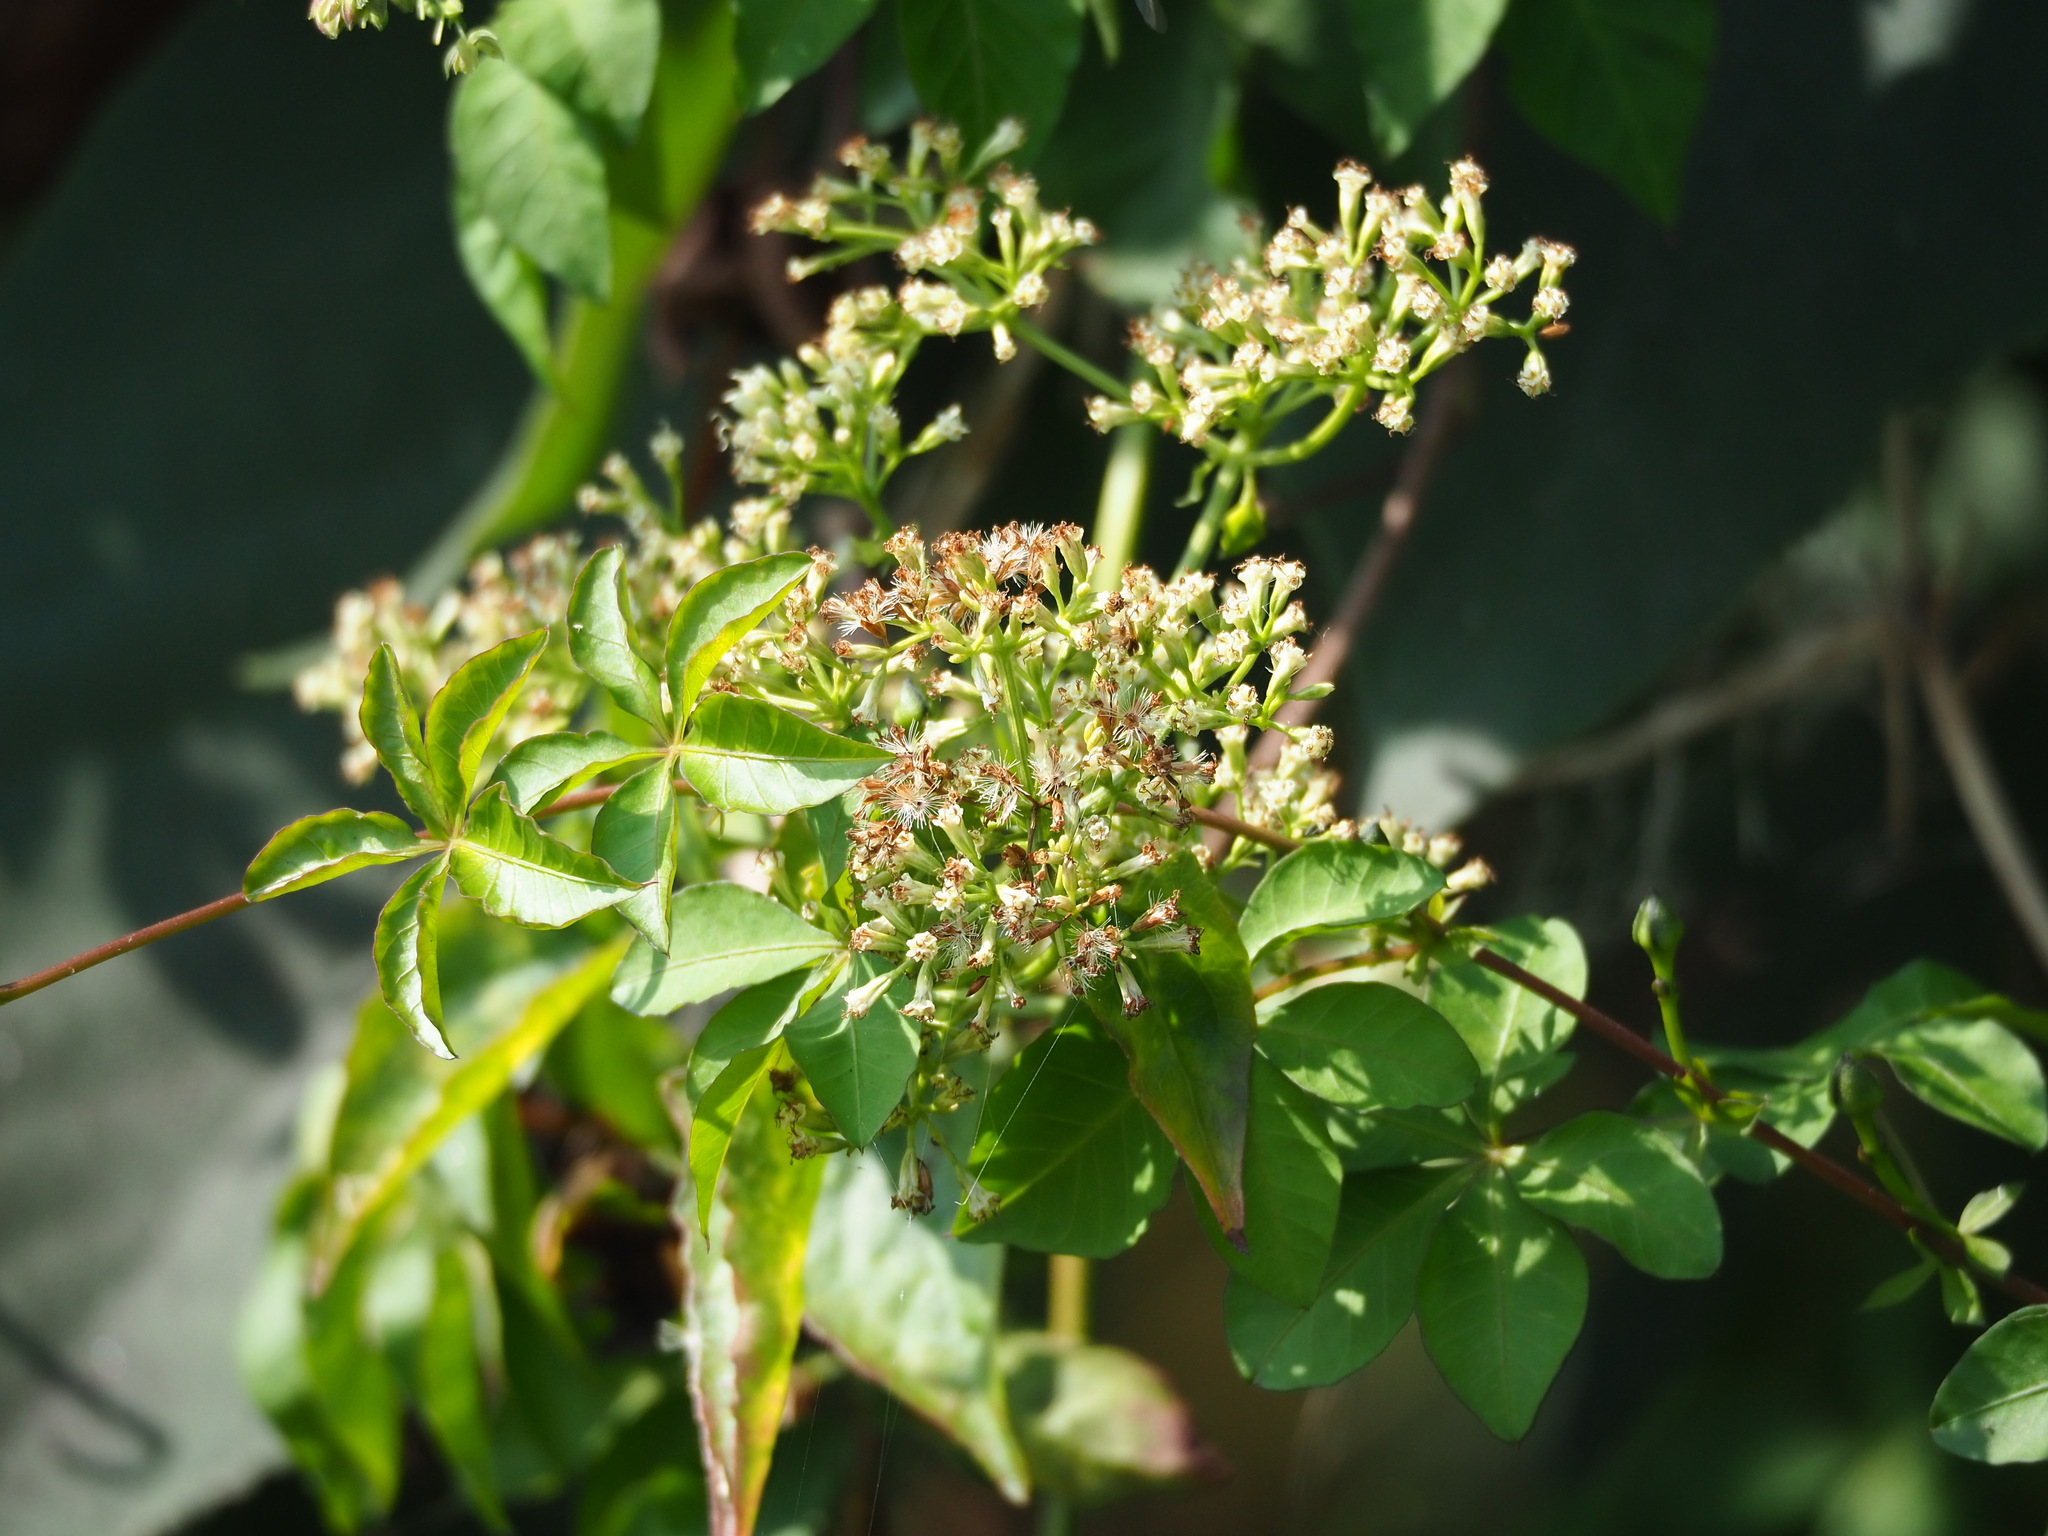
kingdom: Plantae
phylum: Tracheophyta
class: Magnoliopsida
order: Asterales
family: Asteraceae
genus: Mikania
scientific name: Mikania micrantha
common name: Mile-a-minute
